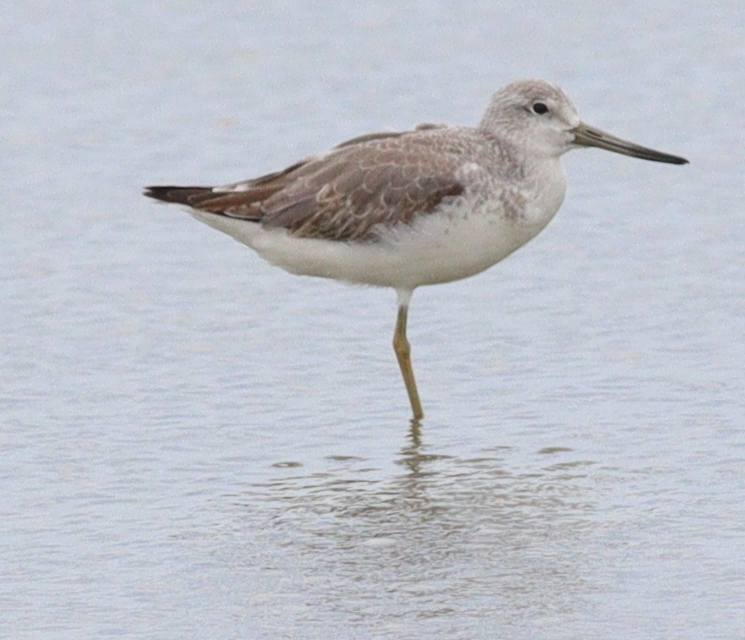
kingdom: Animalia
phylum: Chordata
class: Aves
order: Charadriiformes
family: Scolopacidae
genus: Tringa
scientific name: Tringa guttifer
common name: Nordmann's greenshank
